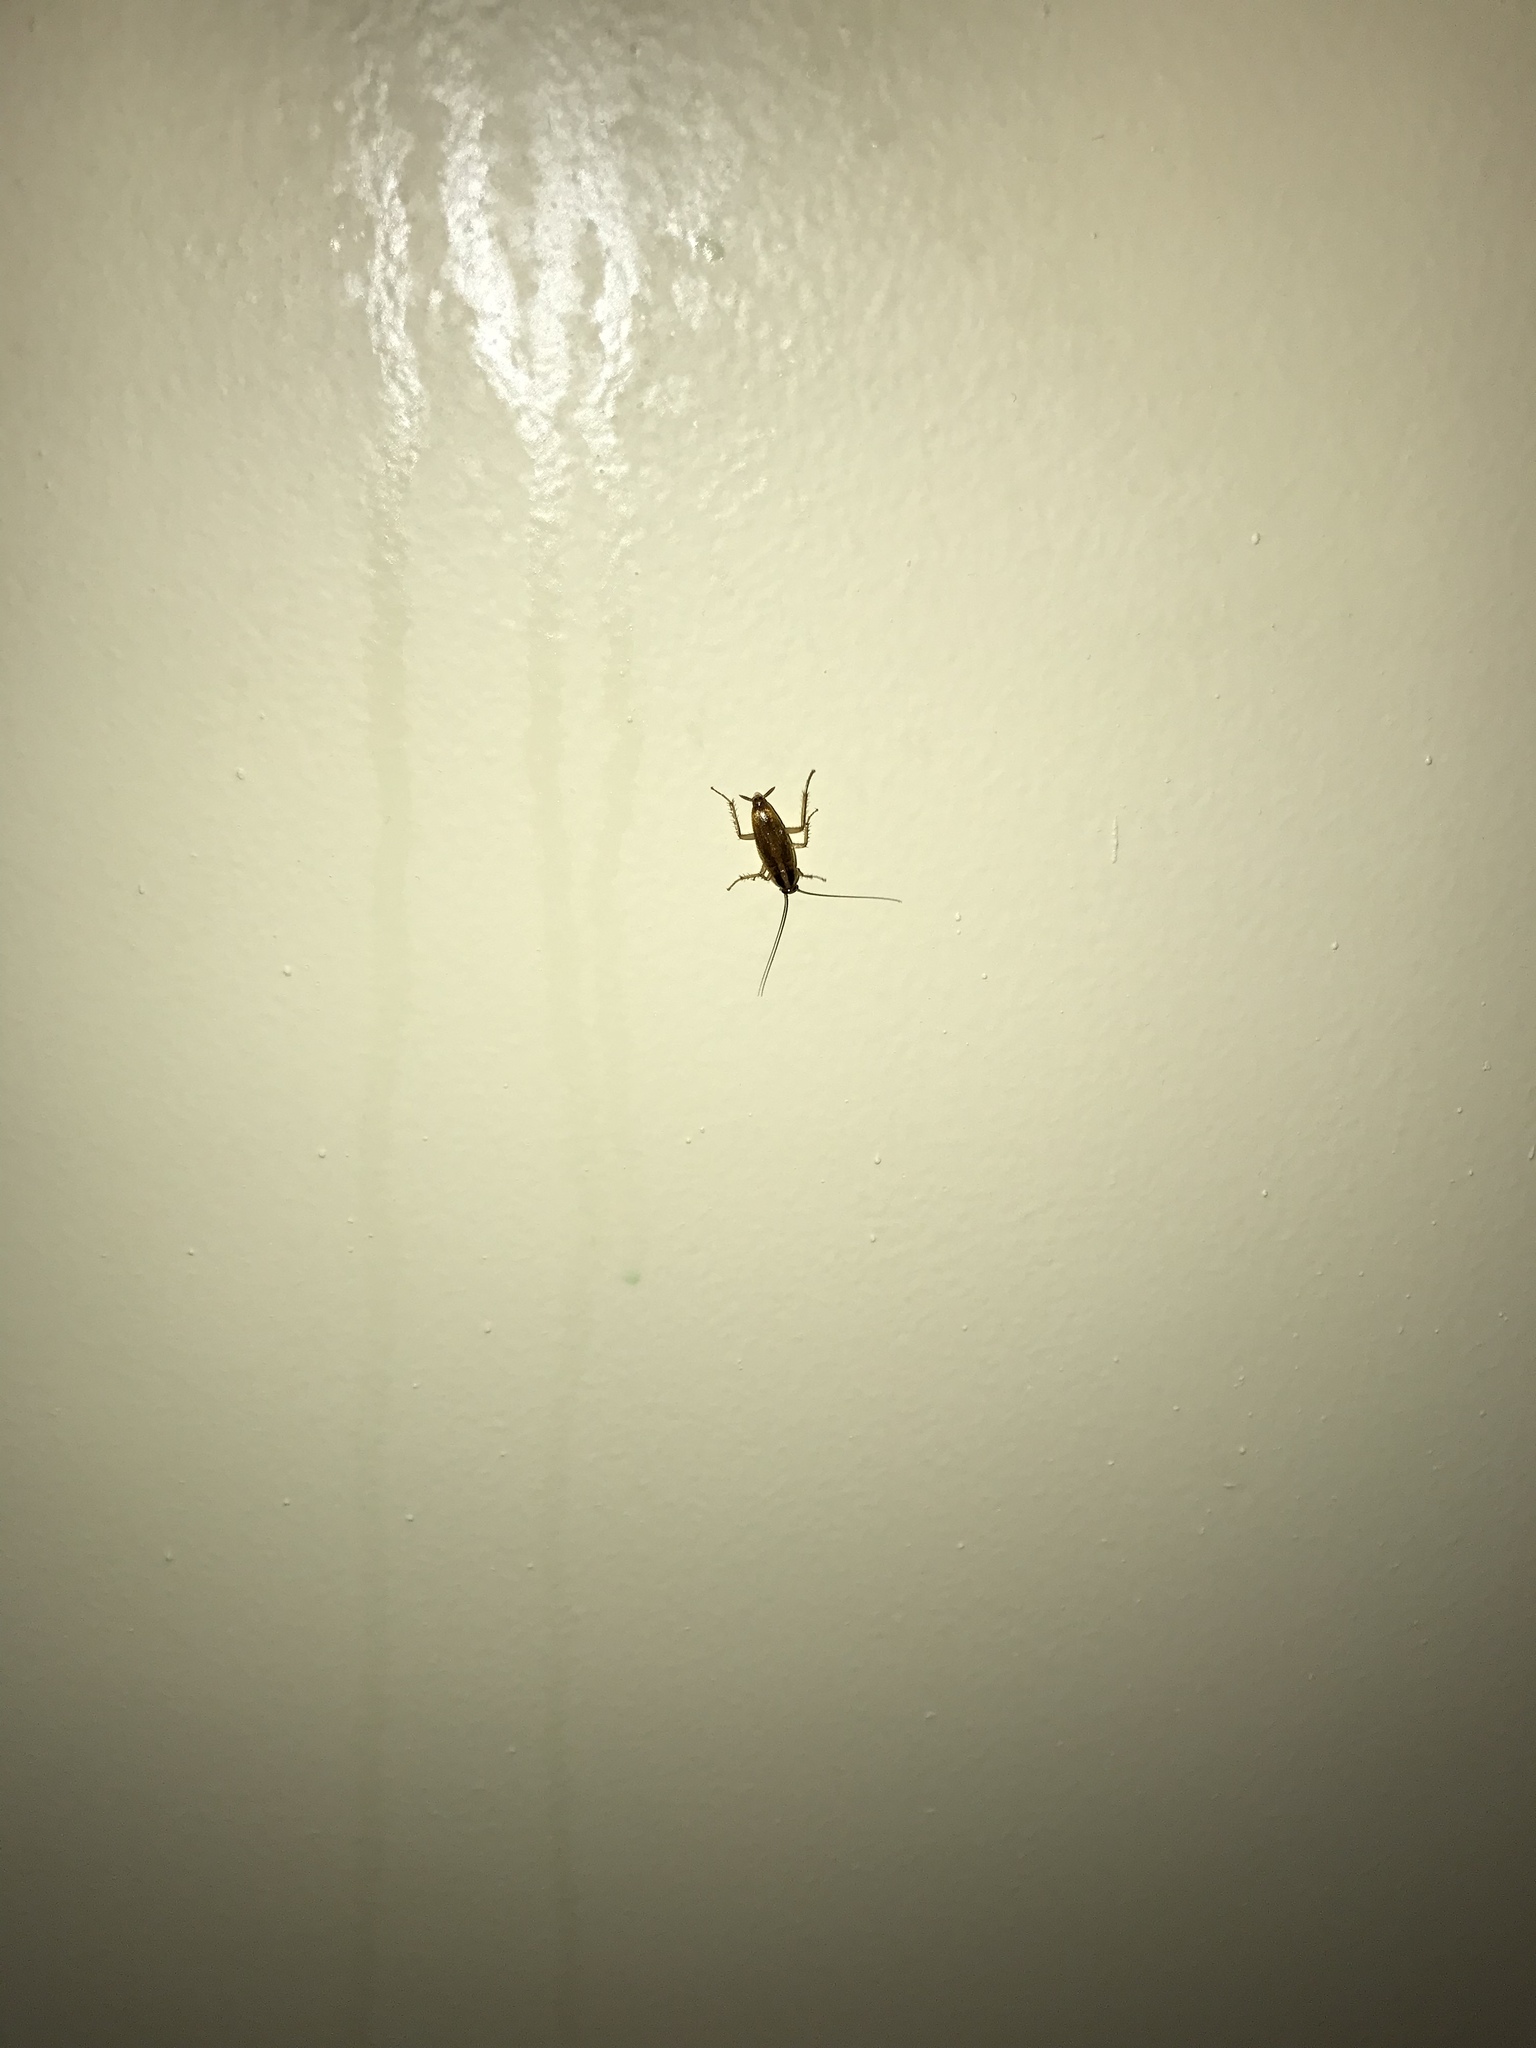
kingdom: Animalia
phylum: Arthropoda
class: Insecta
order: Blattodea
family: Ectobiidae
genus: Blattella
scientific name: Blattella germanica
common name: German cockroach
